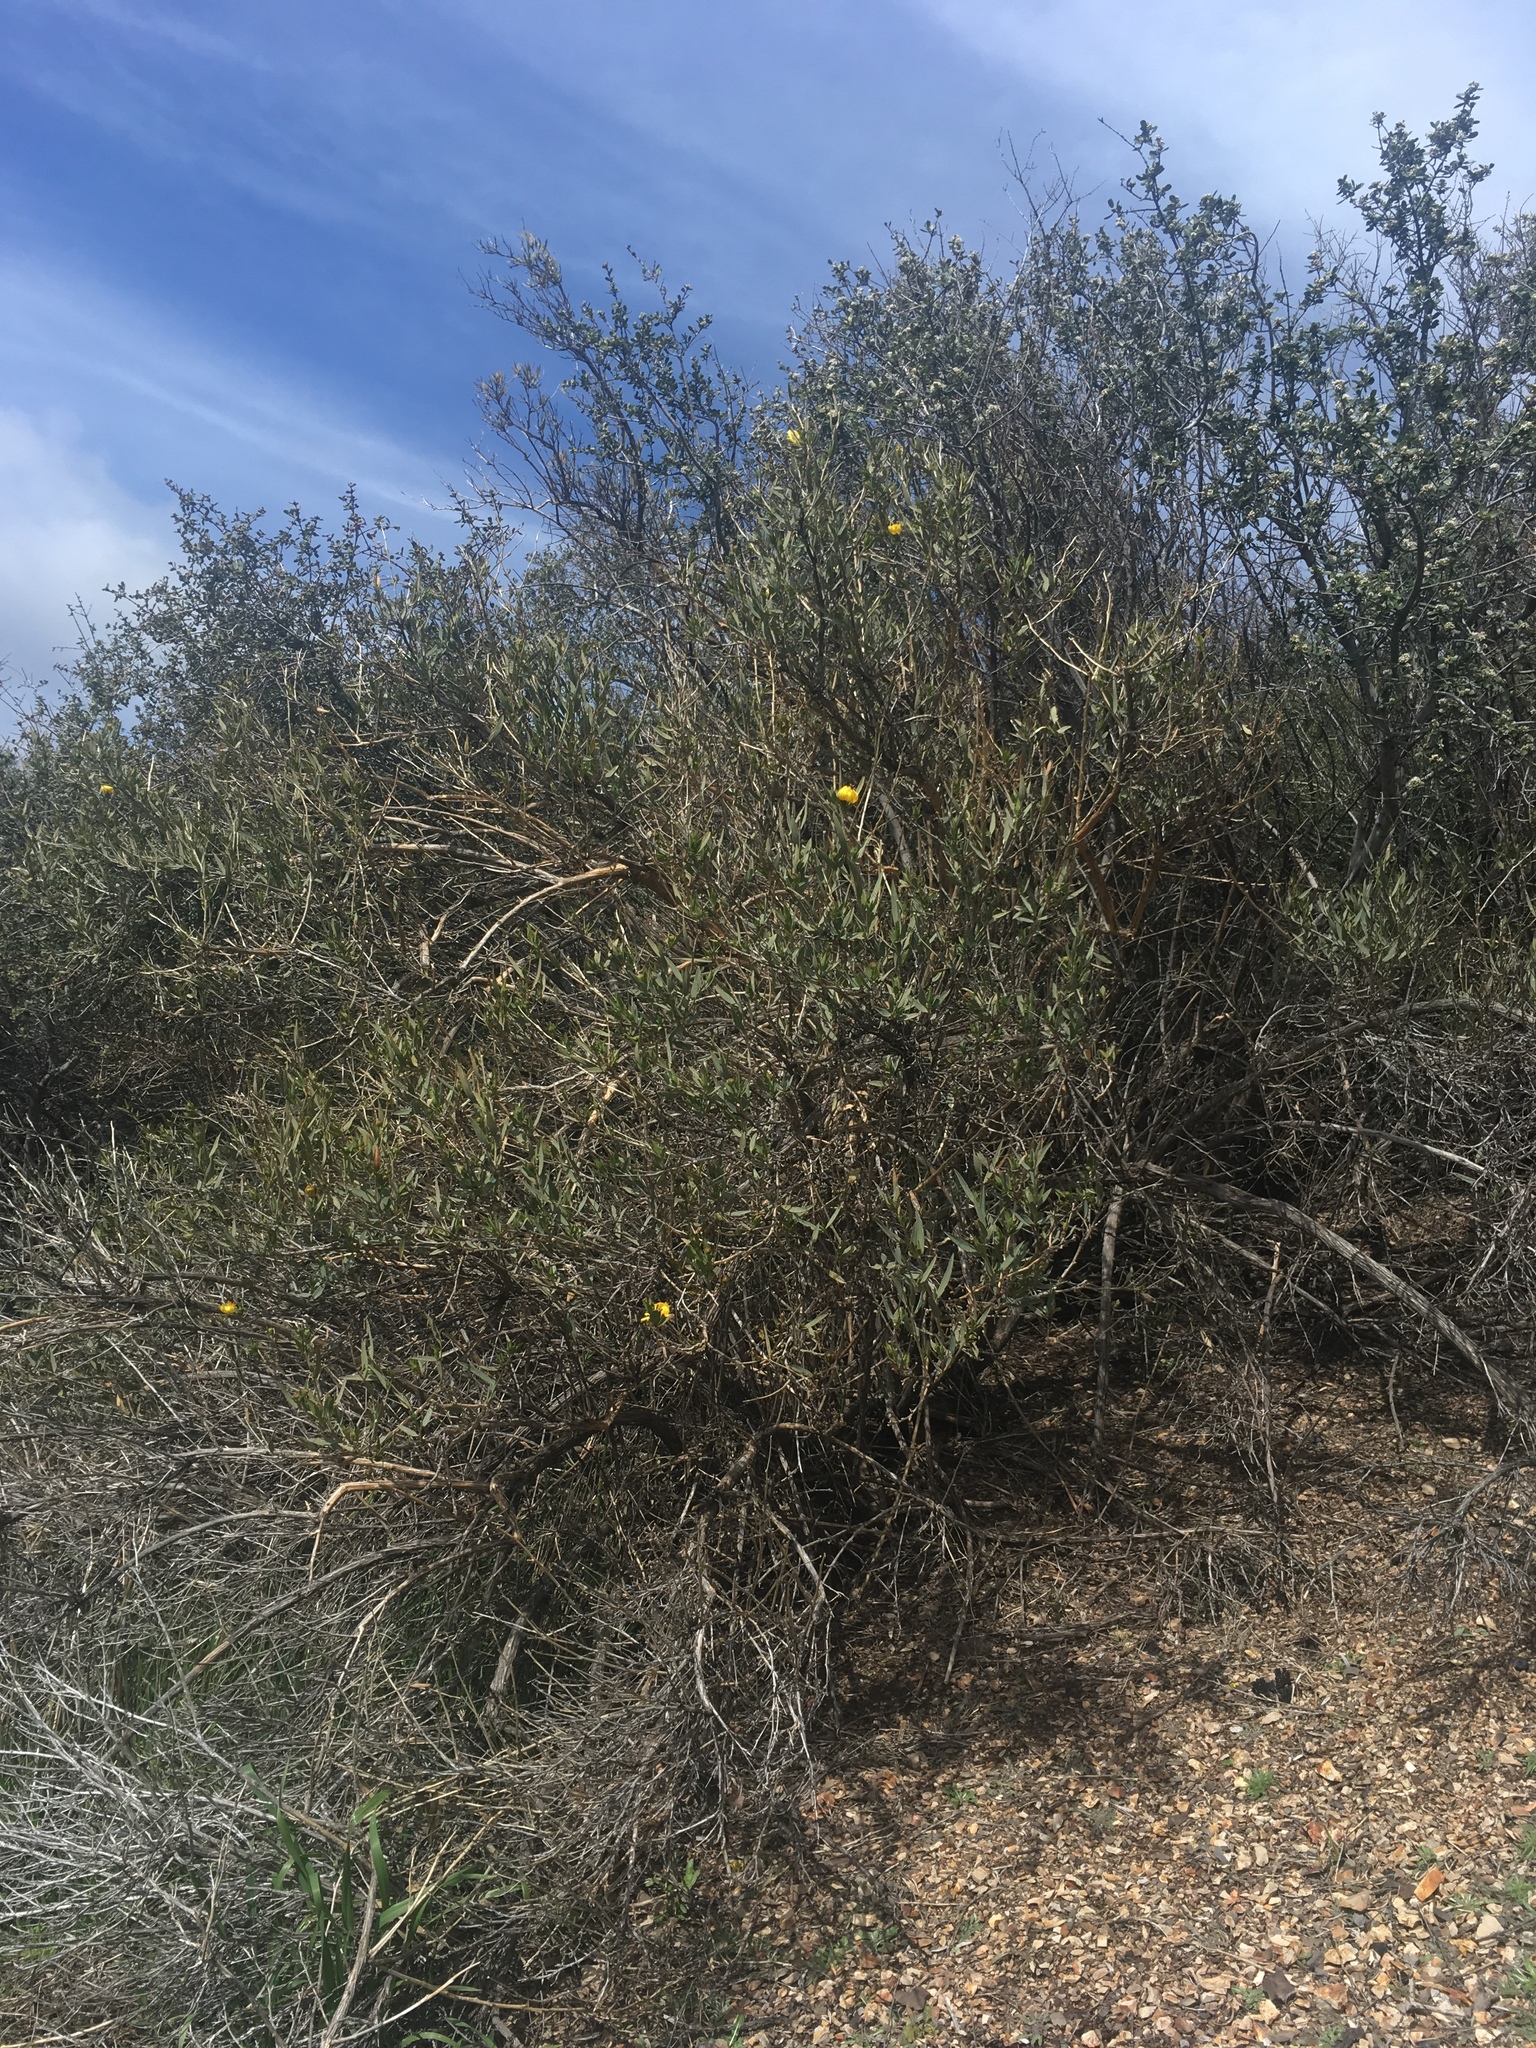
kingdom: Plantae
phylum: Tracheophyta
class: Magnoliopsida
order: Ranunculales
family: Papaveraceae
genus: Dendromecon
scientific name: Dendromecon rigida
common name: Tree poppy
